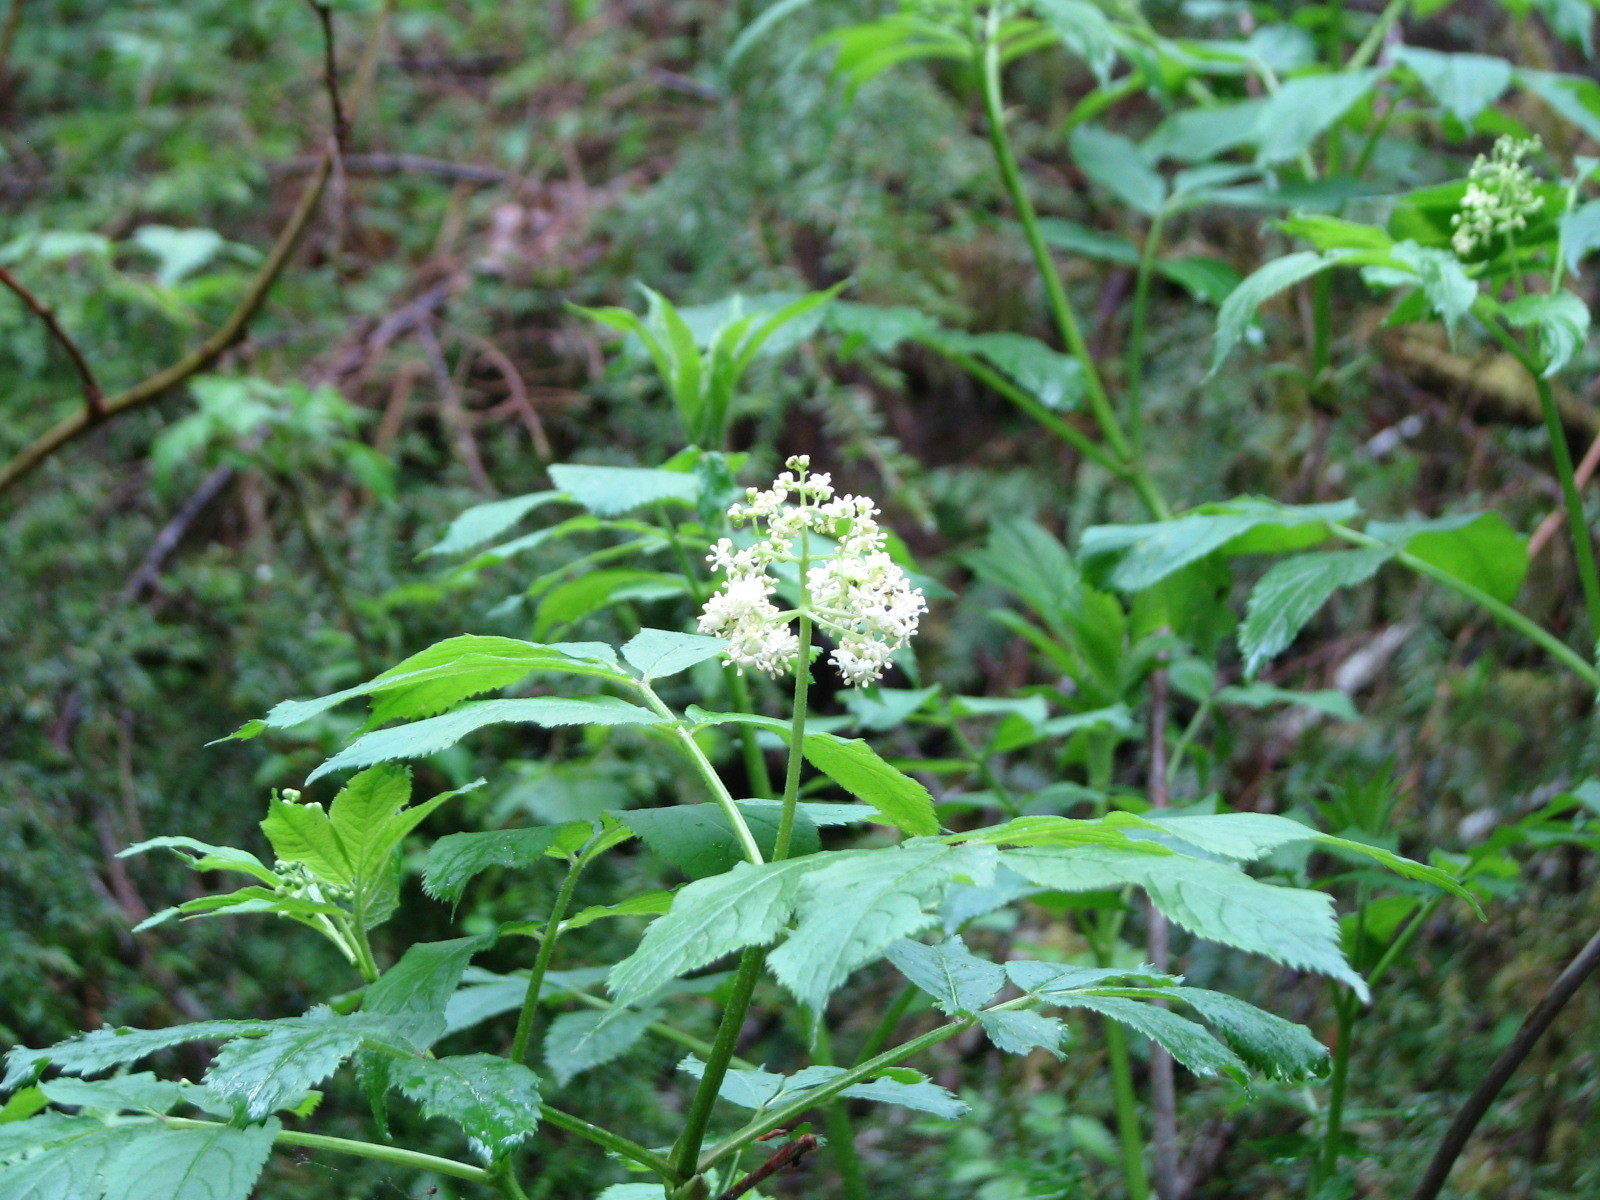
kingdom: Plantae
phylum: Tracheophyta
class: Magnoliopsida
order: Dipsacales
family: Viburnaceae
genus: Sambucus
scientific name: Sambucus racemosa
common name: Red-berried elder
